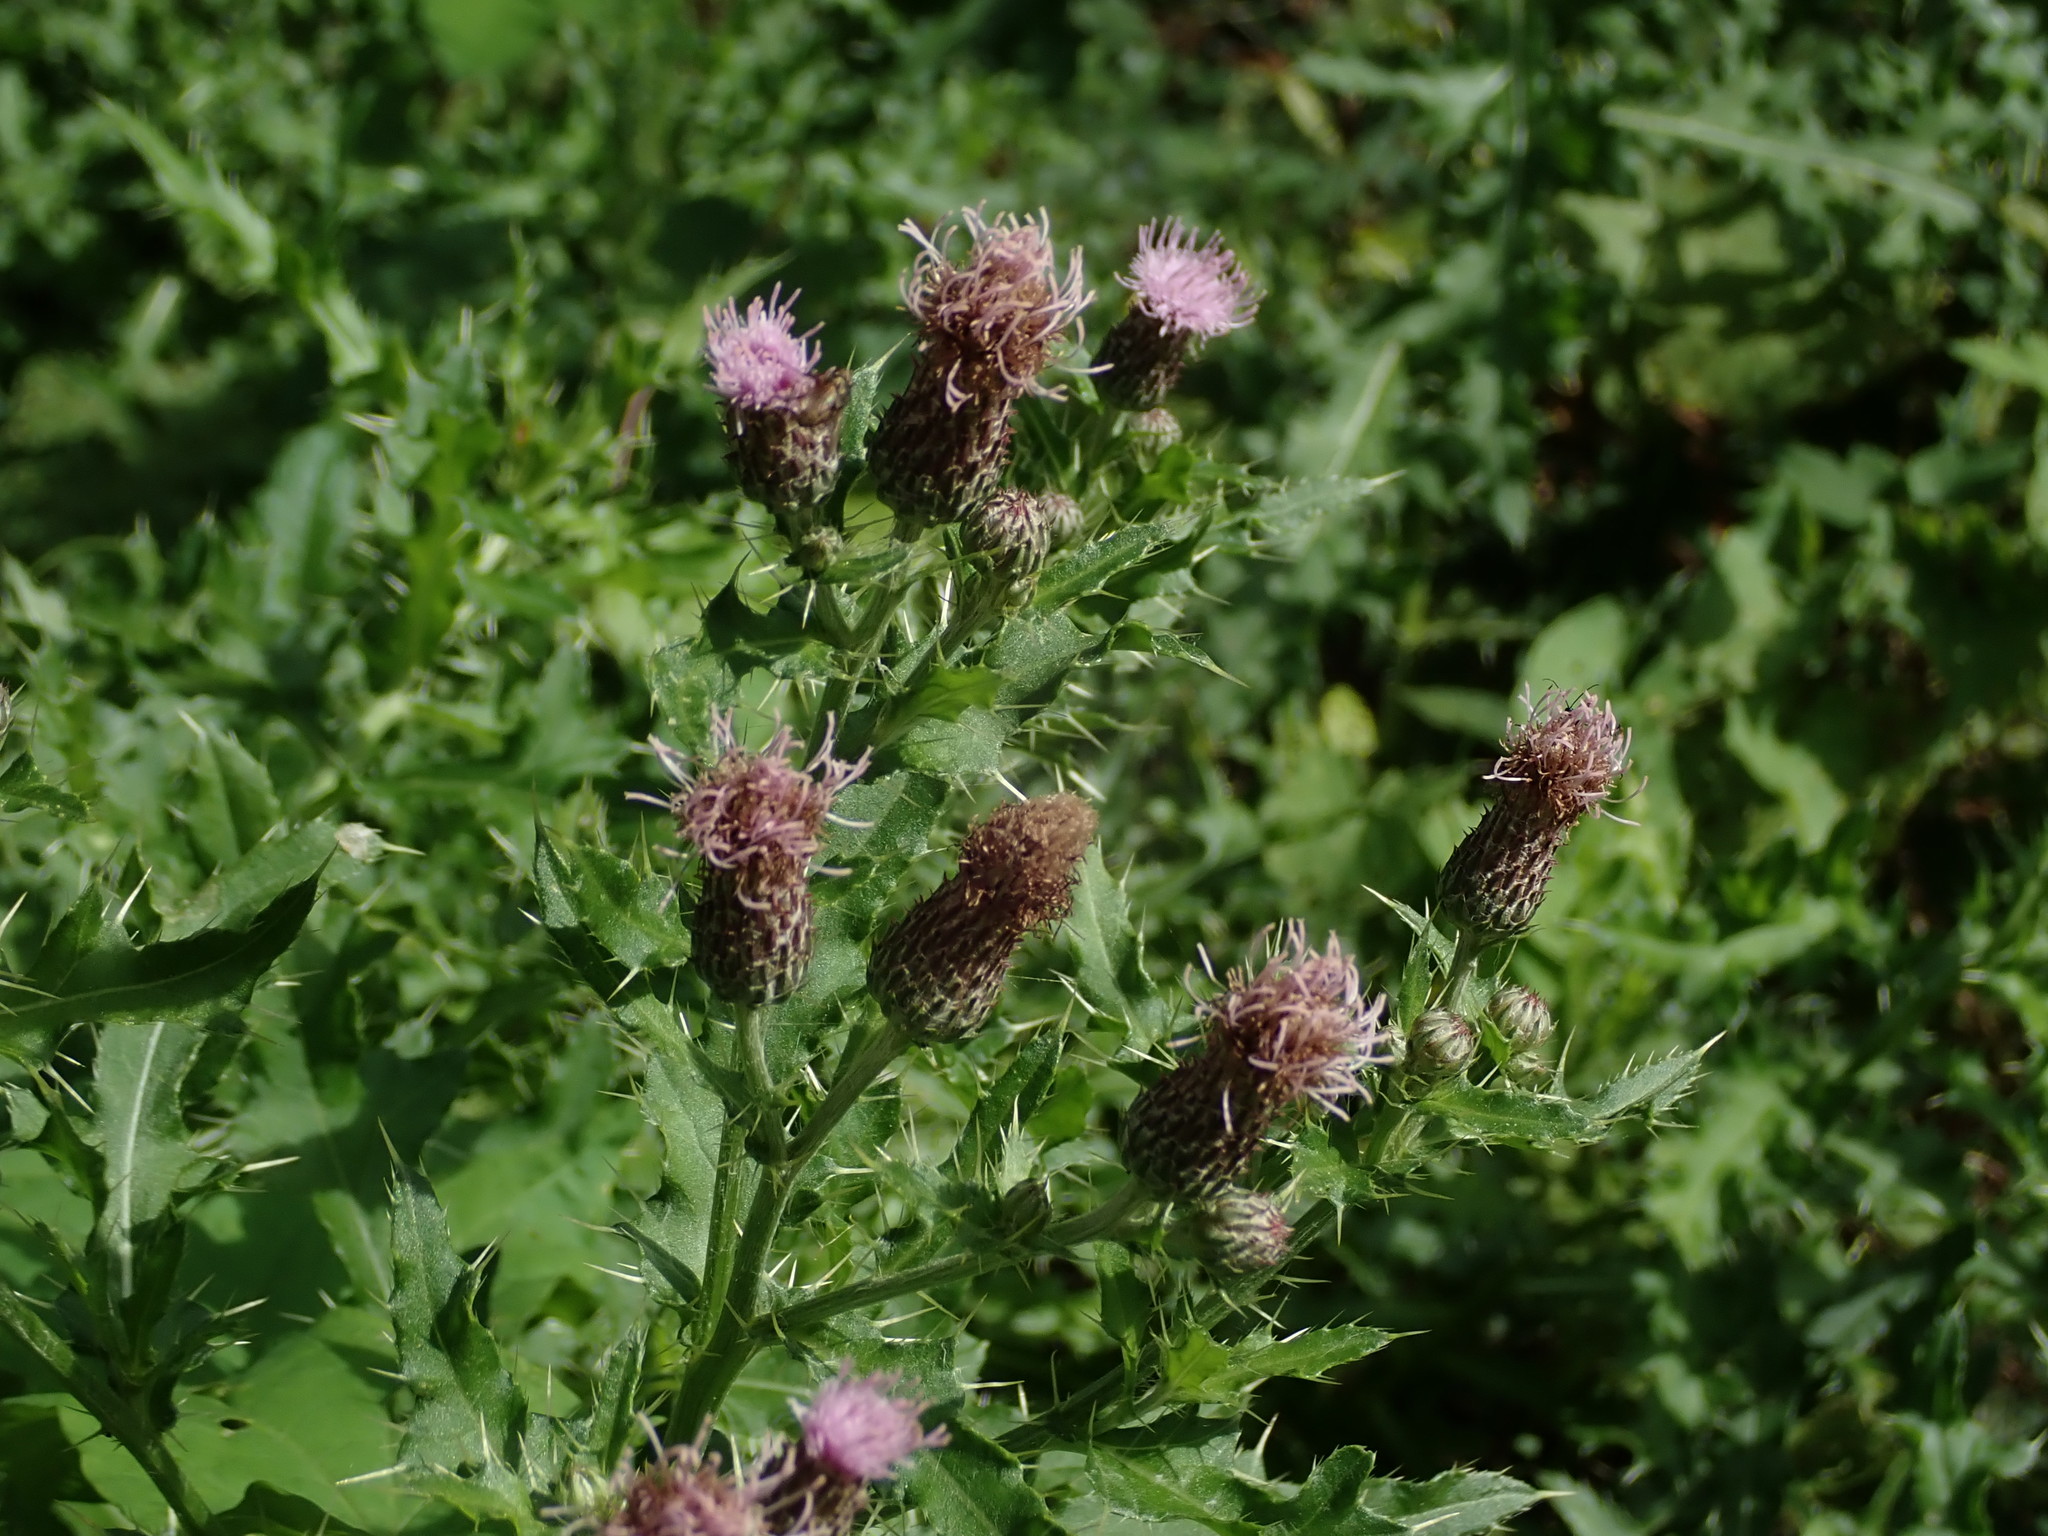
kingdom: Plantae
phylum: Tracheophyta
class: Magnoliopsida
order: Asterales
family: Asteraceae
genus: Cirsium
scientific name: Cirsium arvense
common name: Creeping thistle
